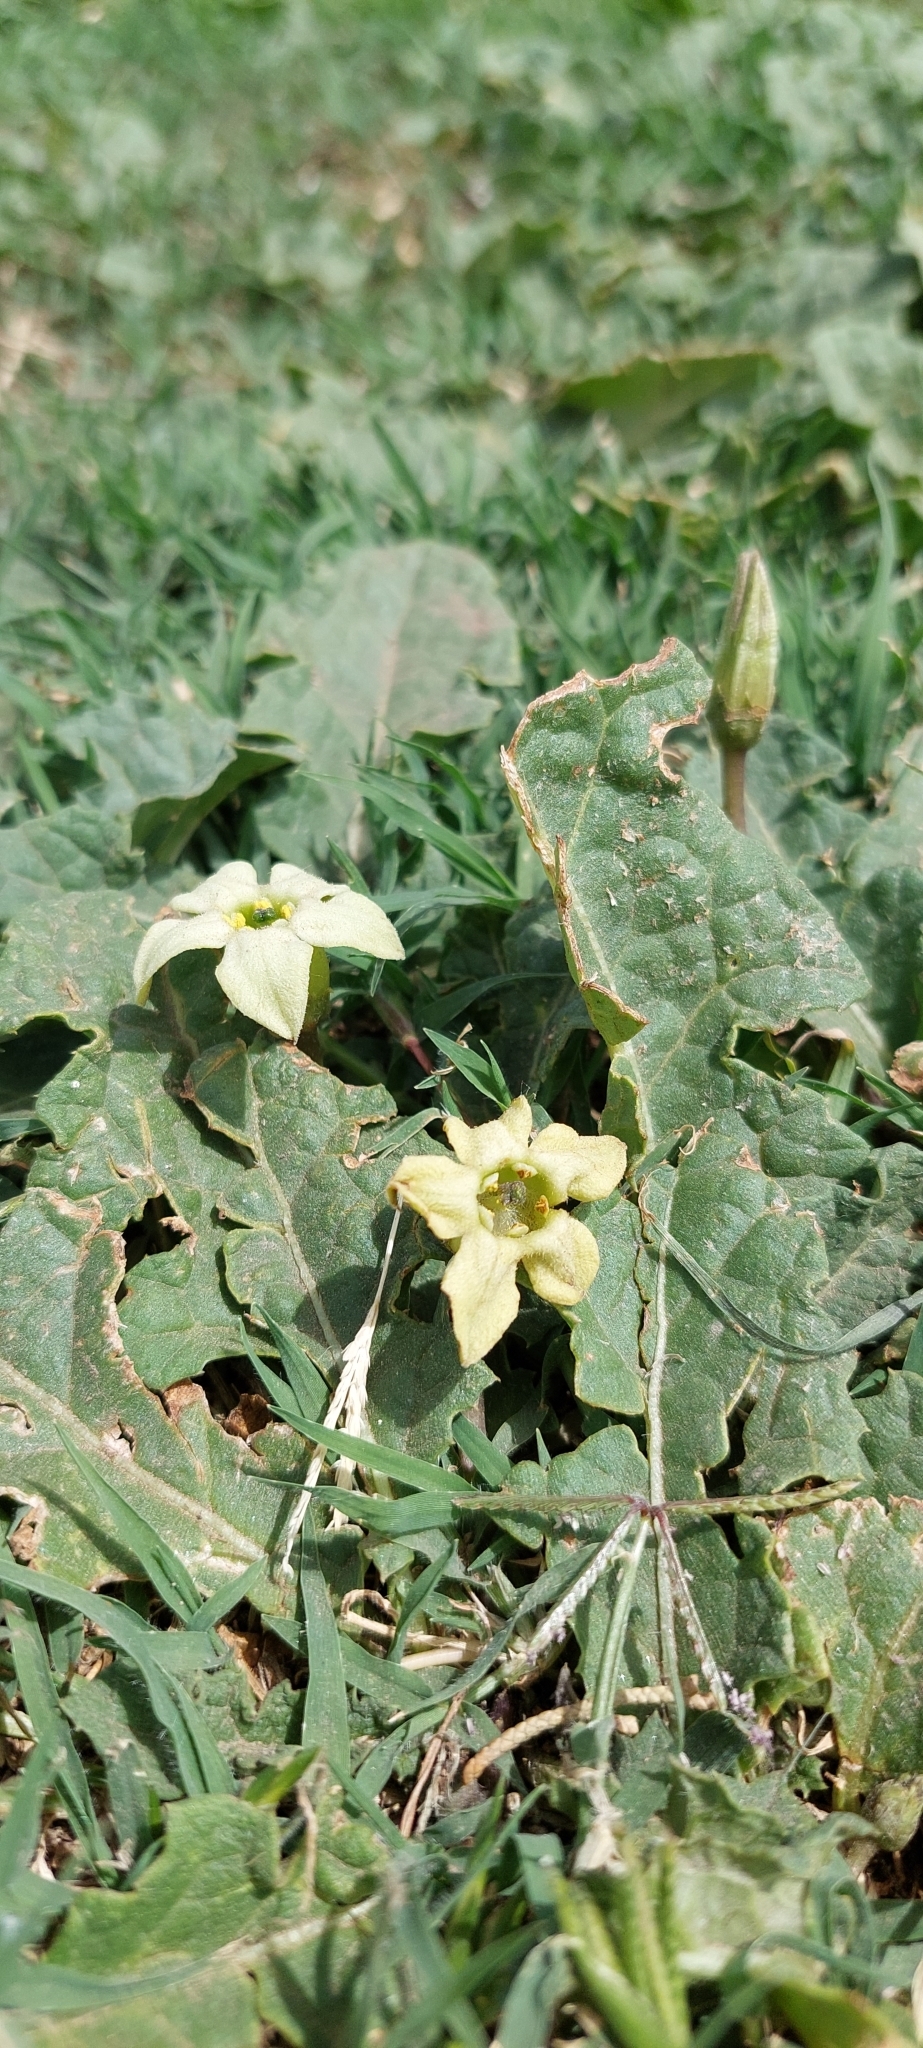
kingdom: Plantae
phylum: Tracheophyta
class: Magnoliopsida
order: Solanales
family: Solanaceae
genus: Jaborosa
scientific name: Jaborosa runcinata
